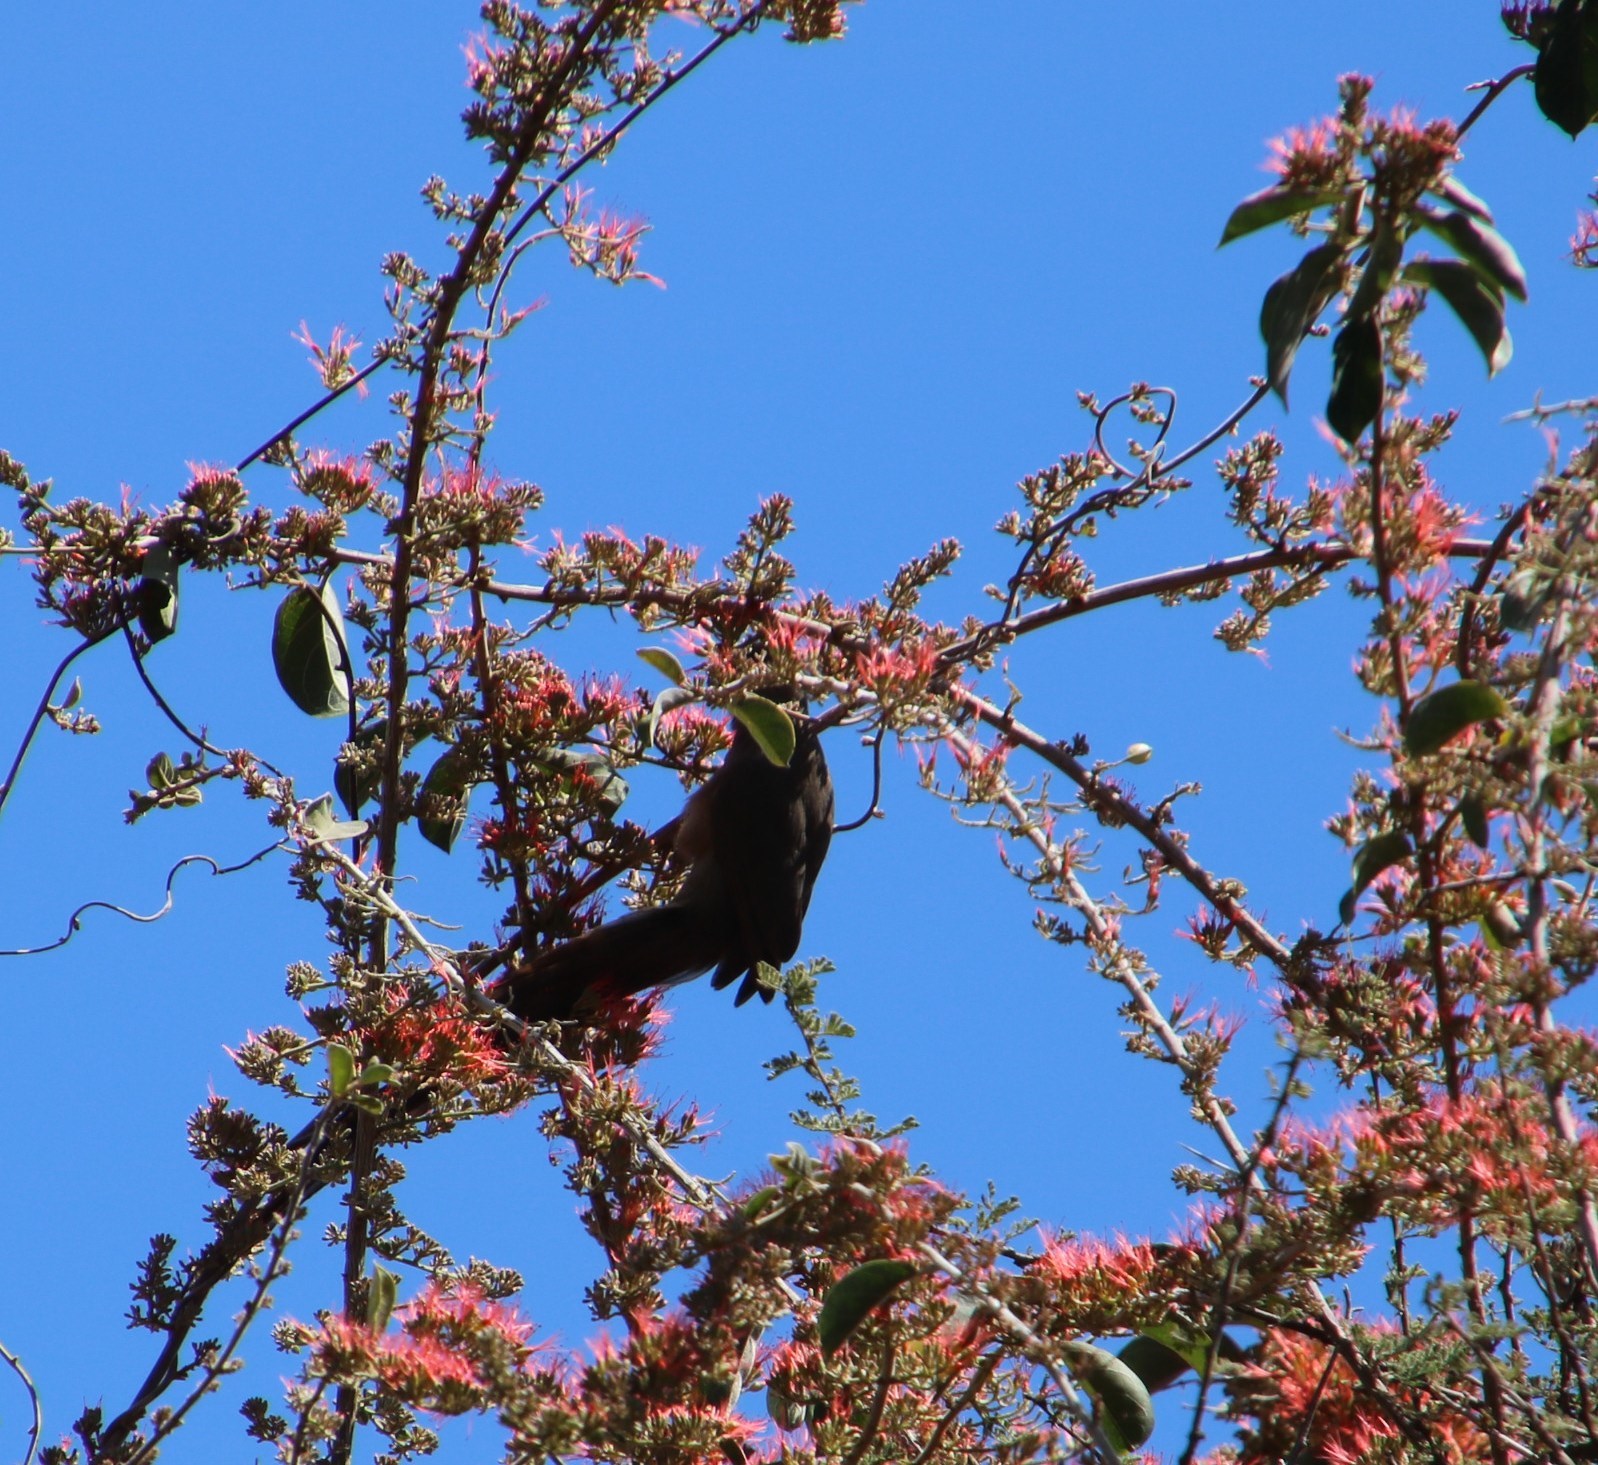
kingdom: Animalia
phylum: Chordata
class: Aves
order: Coliiformes
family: Coliidae
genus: Colius
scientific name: Colius striatus
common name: Speckled mousebird
